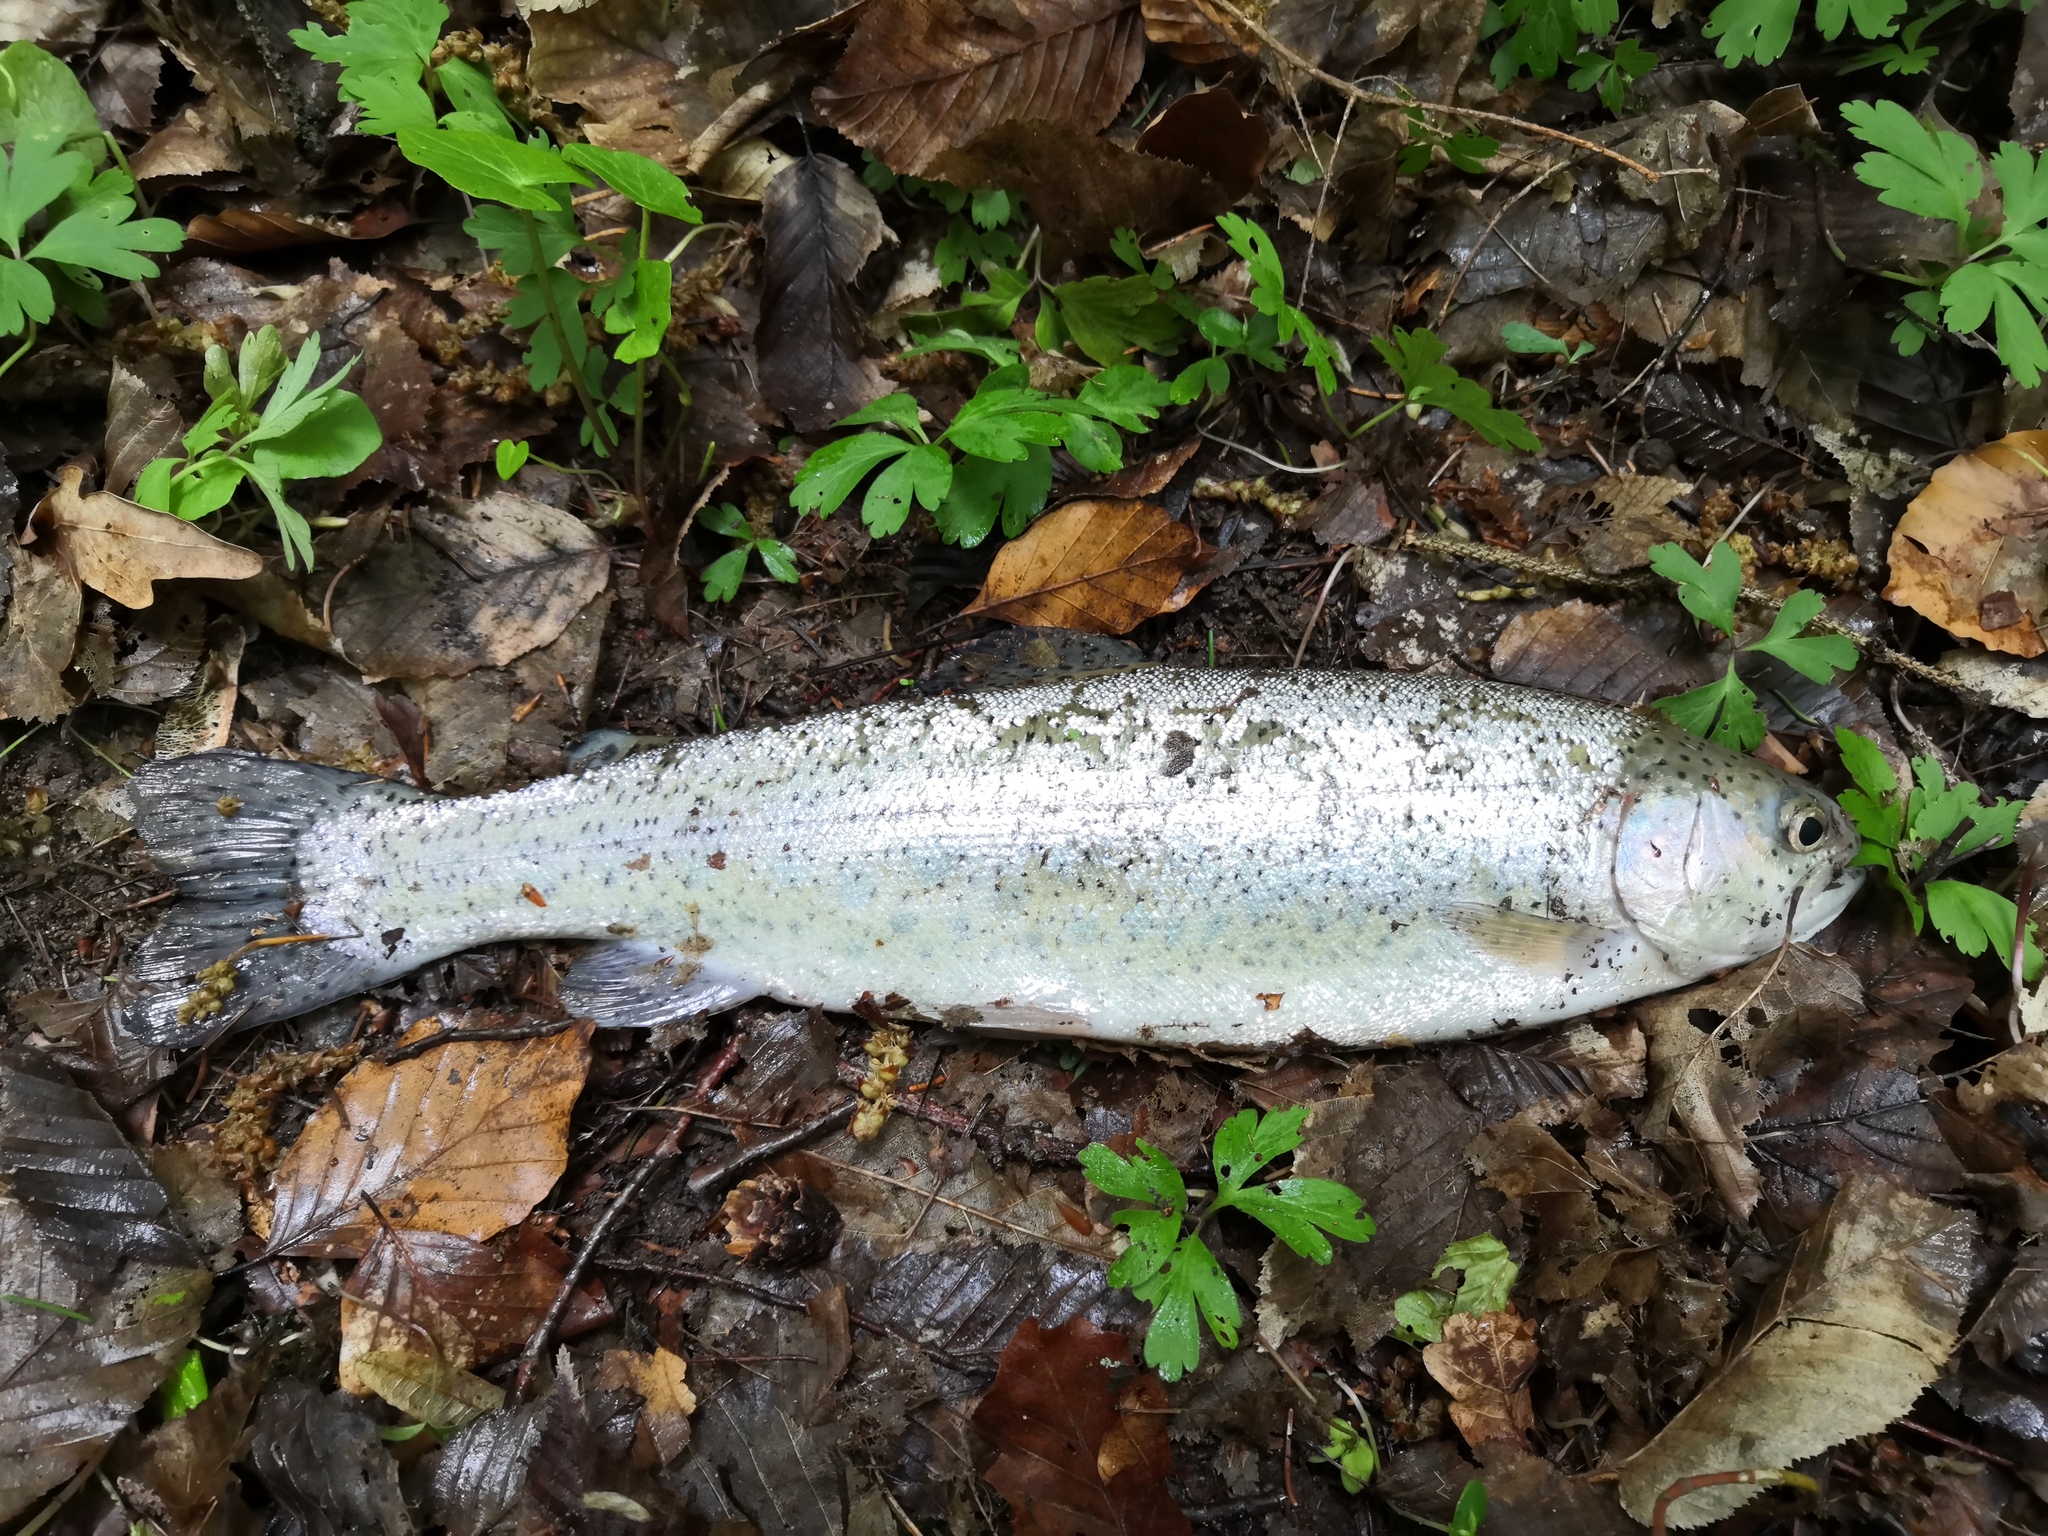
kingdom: Animalia
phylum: Chordata
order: Salmoniformes
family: Salmonidae
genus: Oncorhynchus
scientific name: Oncorhynchus mykiss
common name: Rainbow trout
